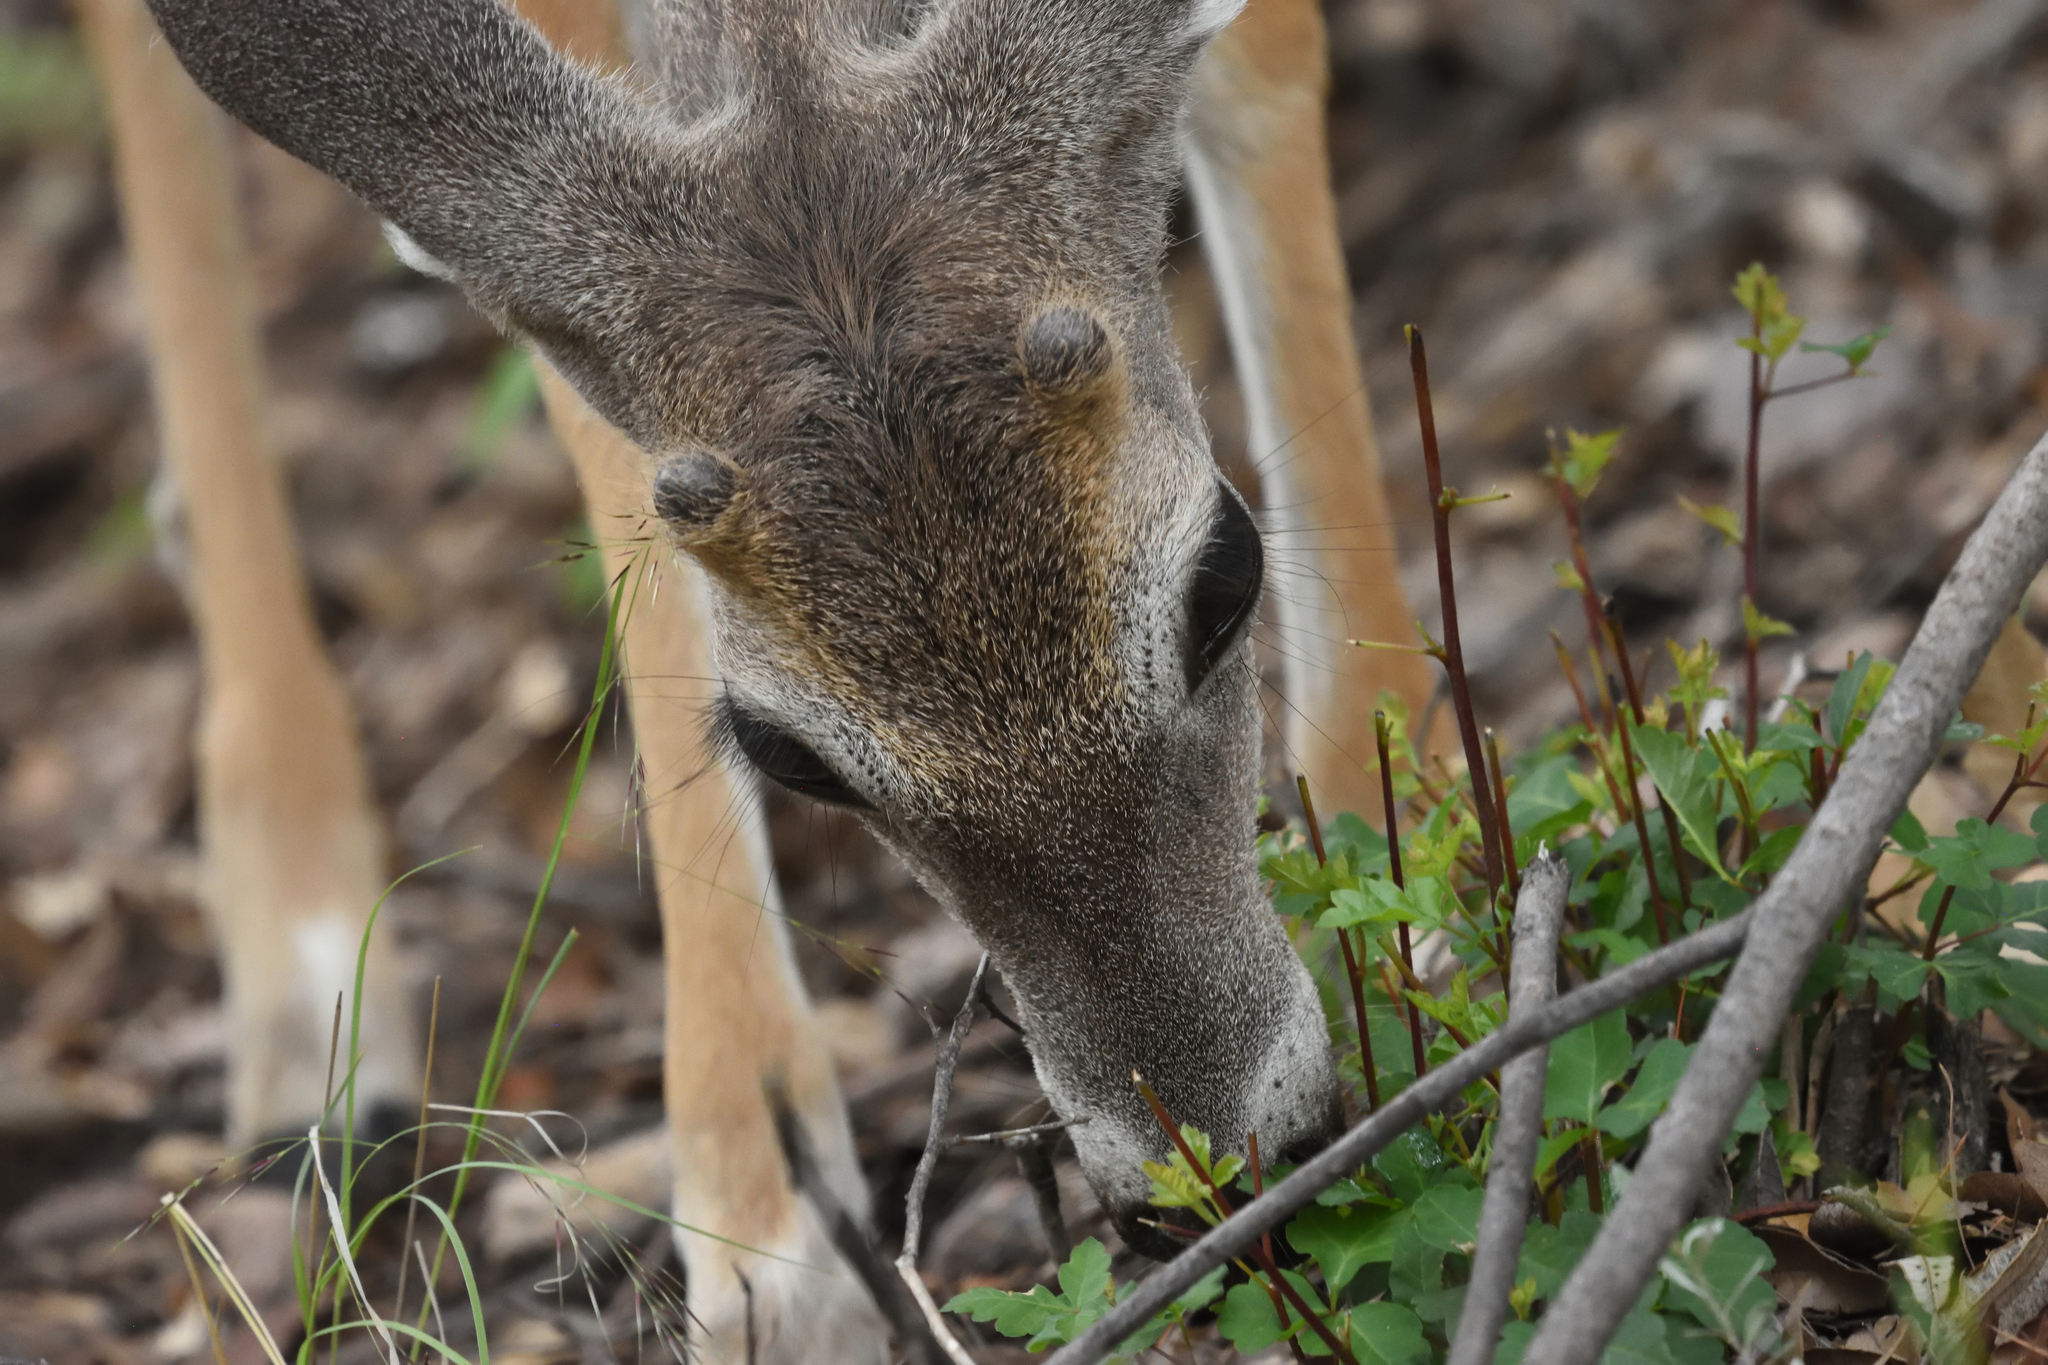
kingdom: Animalia
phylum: Chordata
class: Mammalia
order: Artiodactyla
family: Cervidae
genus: Odocoileus
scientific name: Odocoileus virginianus
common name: White-tailed deer
